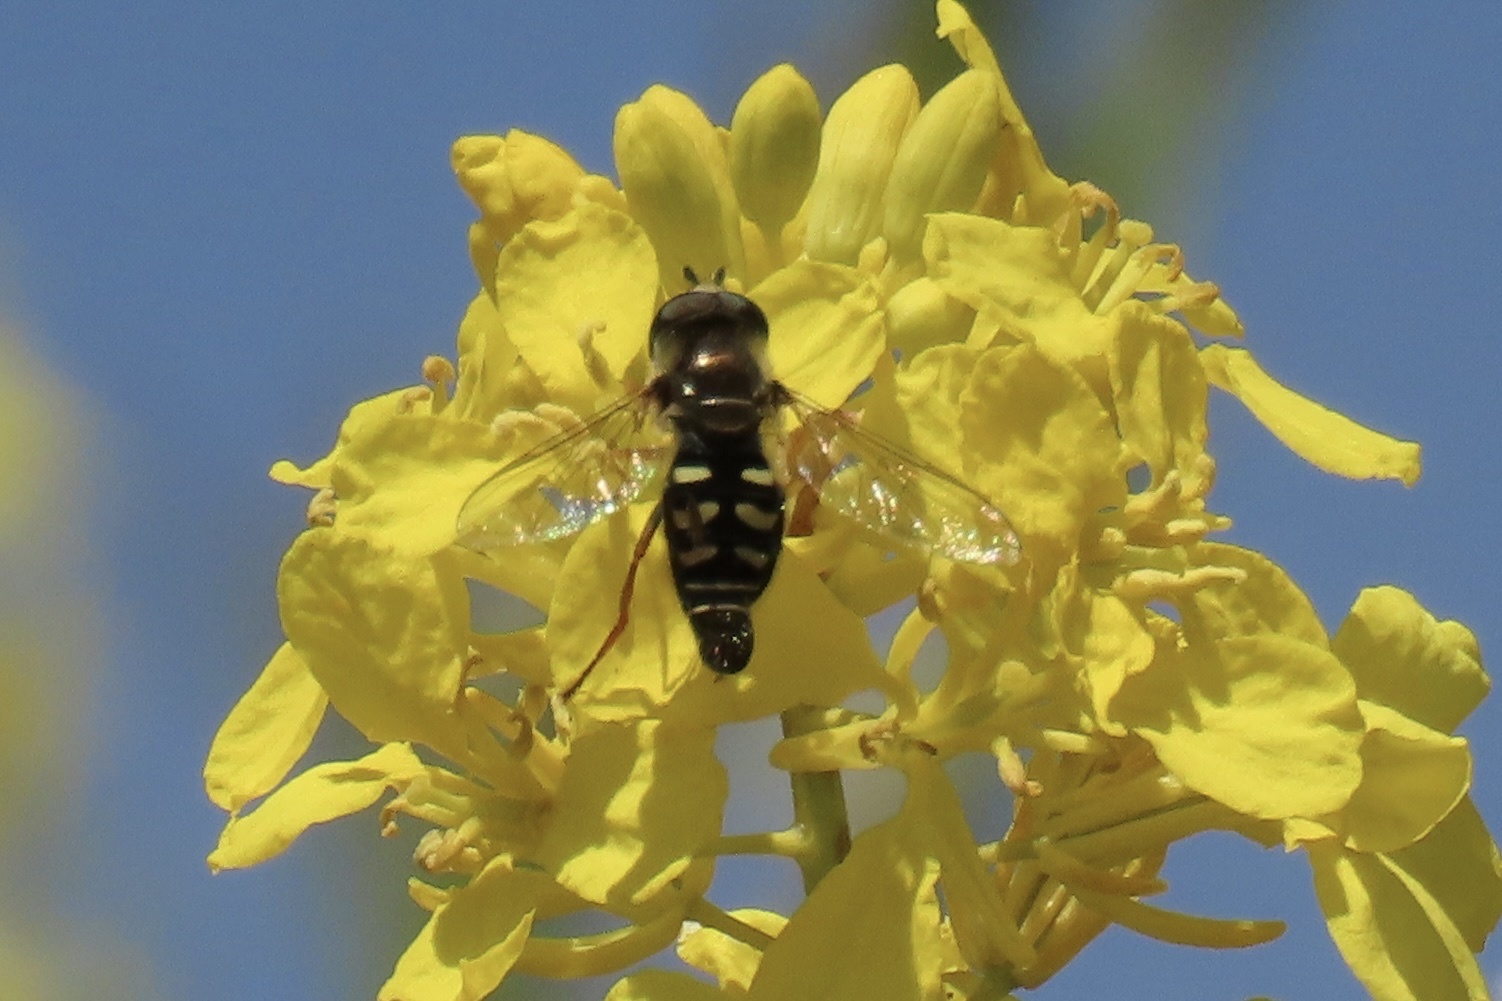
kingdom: Animalia
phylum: Arthropoda
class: Insecta
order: Diptera
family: Syrphidae
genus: Eupeodes
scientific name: Eupeodes volucris
